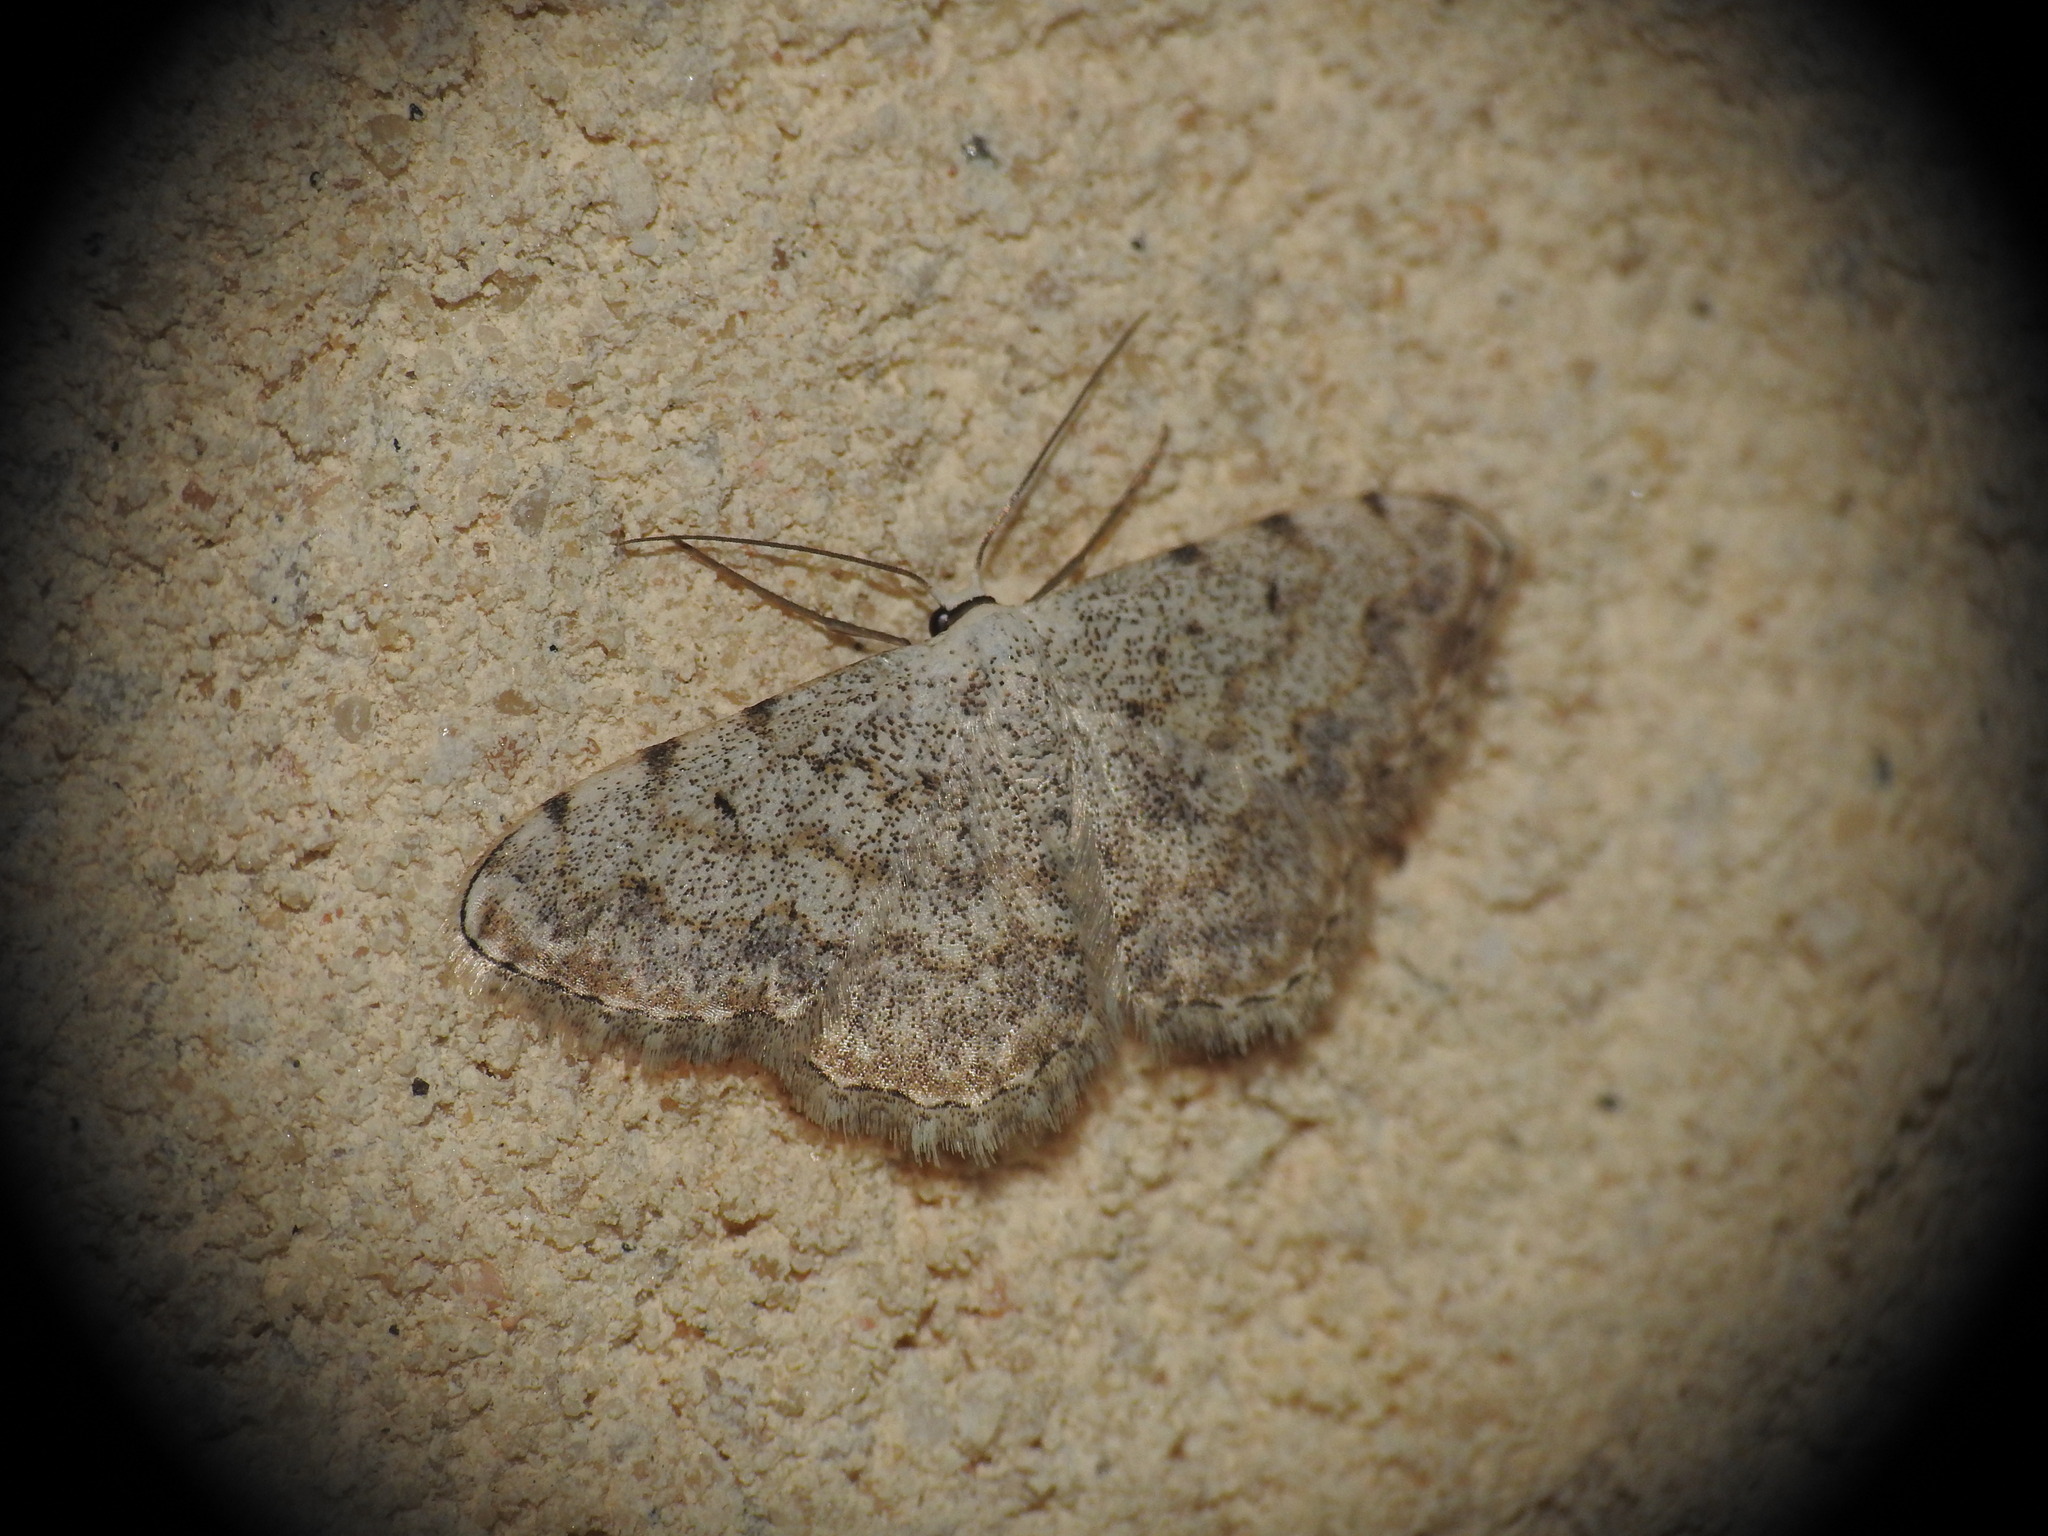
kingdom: Animalia
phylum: Arthropoda
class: Insecta
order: Lepidoptera
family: Geometridae
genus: Scopula
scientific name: Scopula submutata
